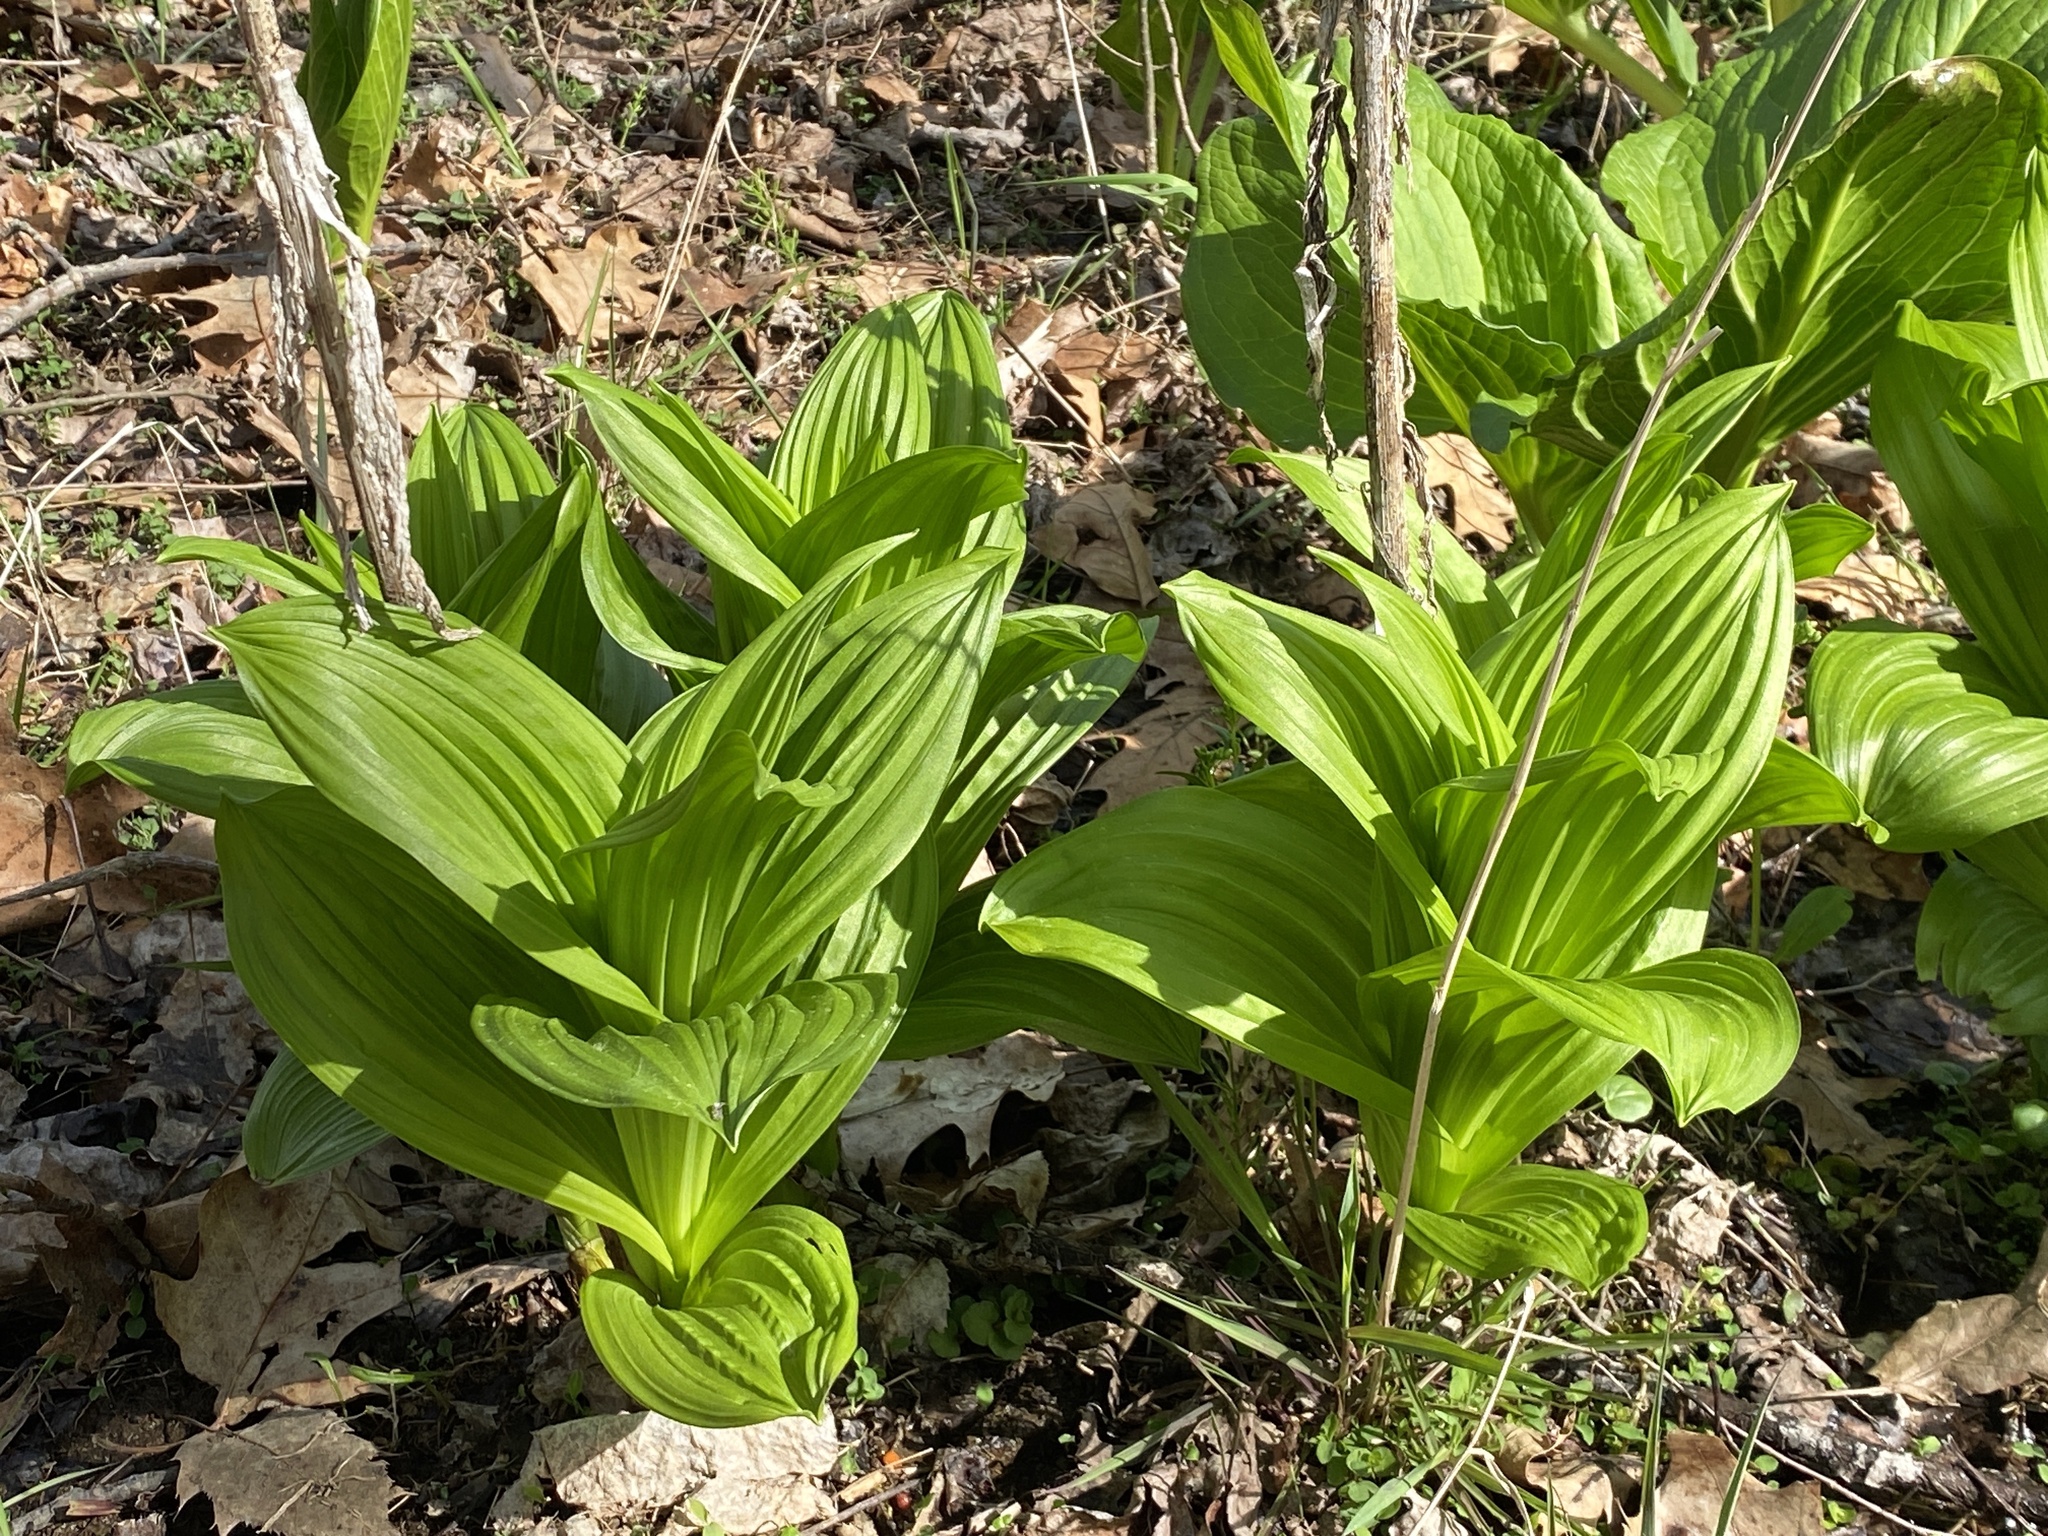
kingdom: Plantae
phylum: Tracheophyta
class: Liliopsida
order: Liliales
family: Melanthiaceae
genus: Veratrum
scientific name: Veratrum viride
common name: American false hellebore
